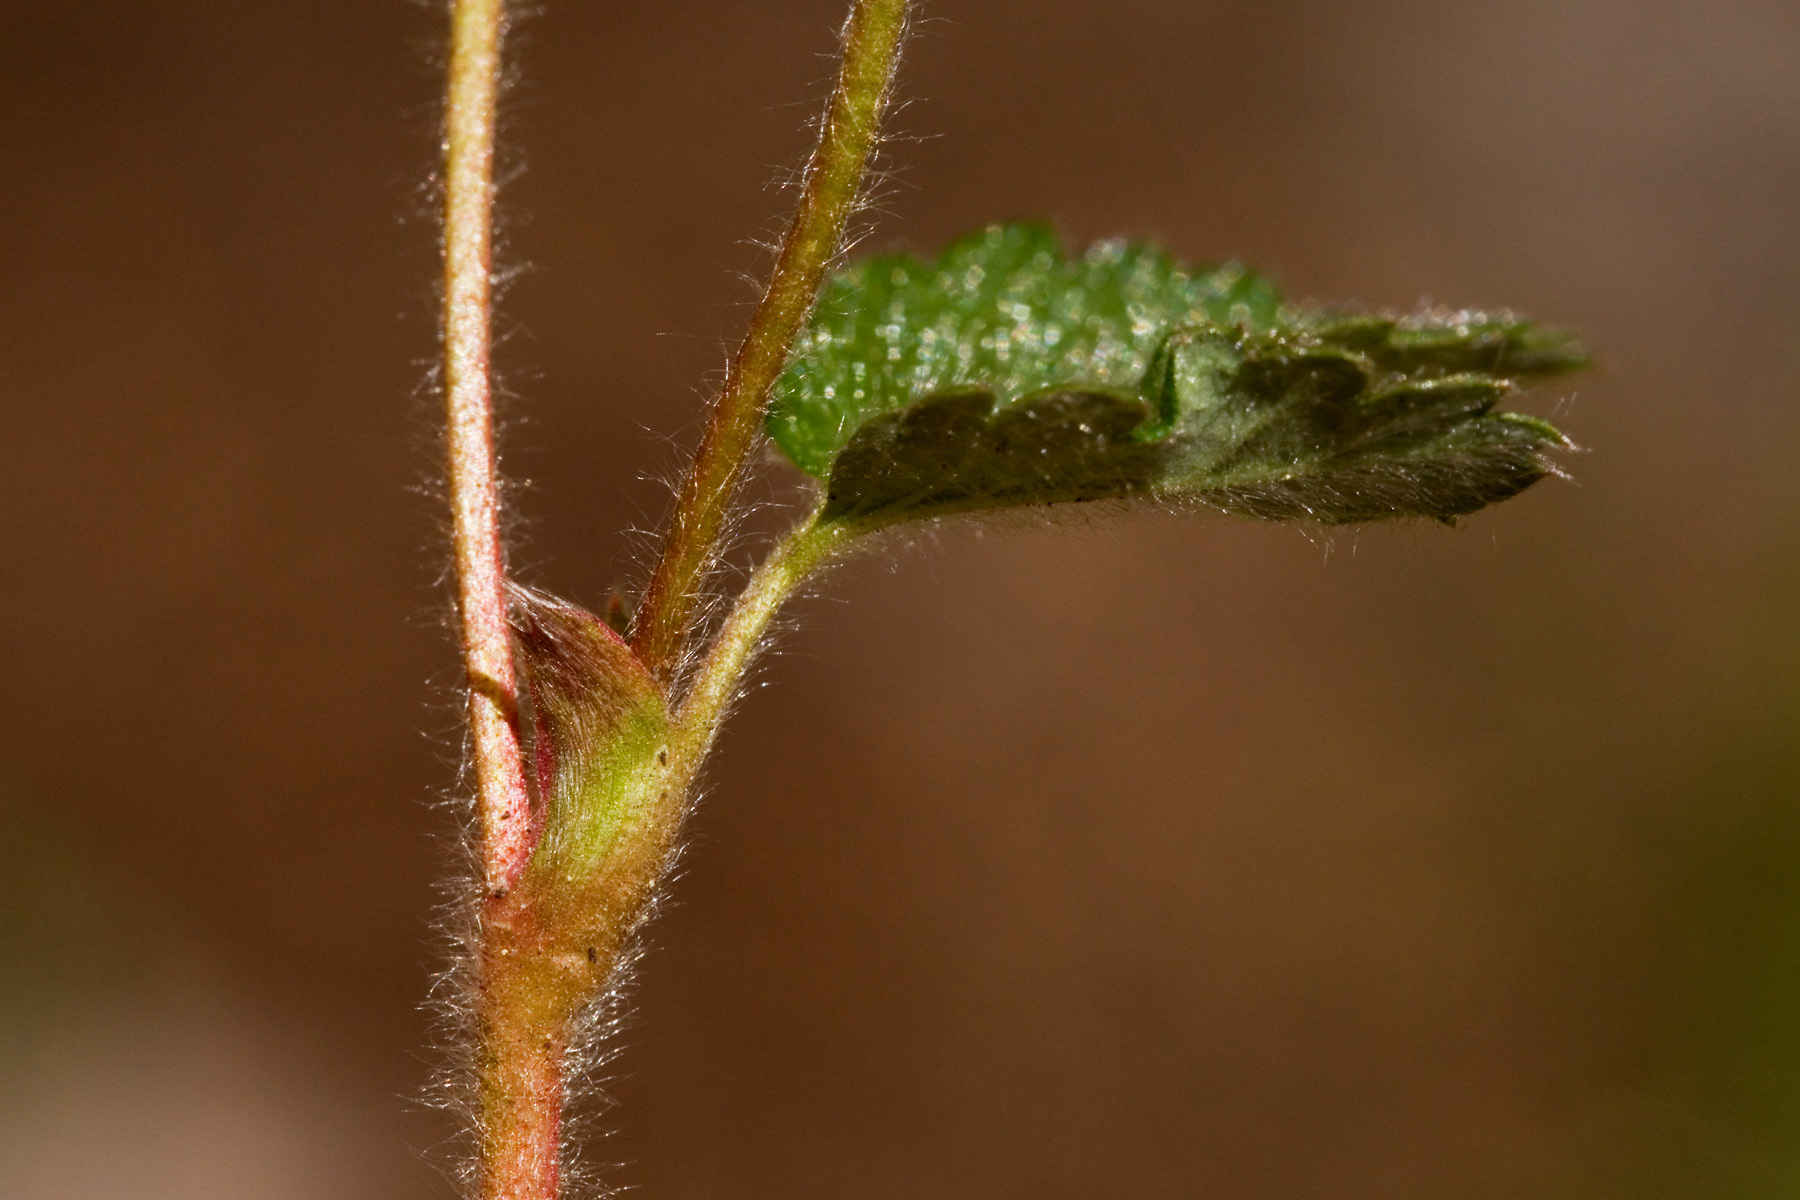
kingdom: Plantae
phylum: Tracheophyta
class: Magnoliopsida
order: Rosales
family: Rosaceae
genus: Fragaria
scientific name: Fragaria vesca
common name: Wild strawberry
